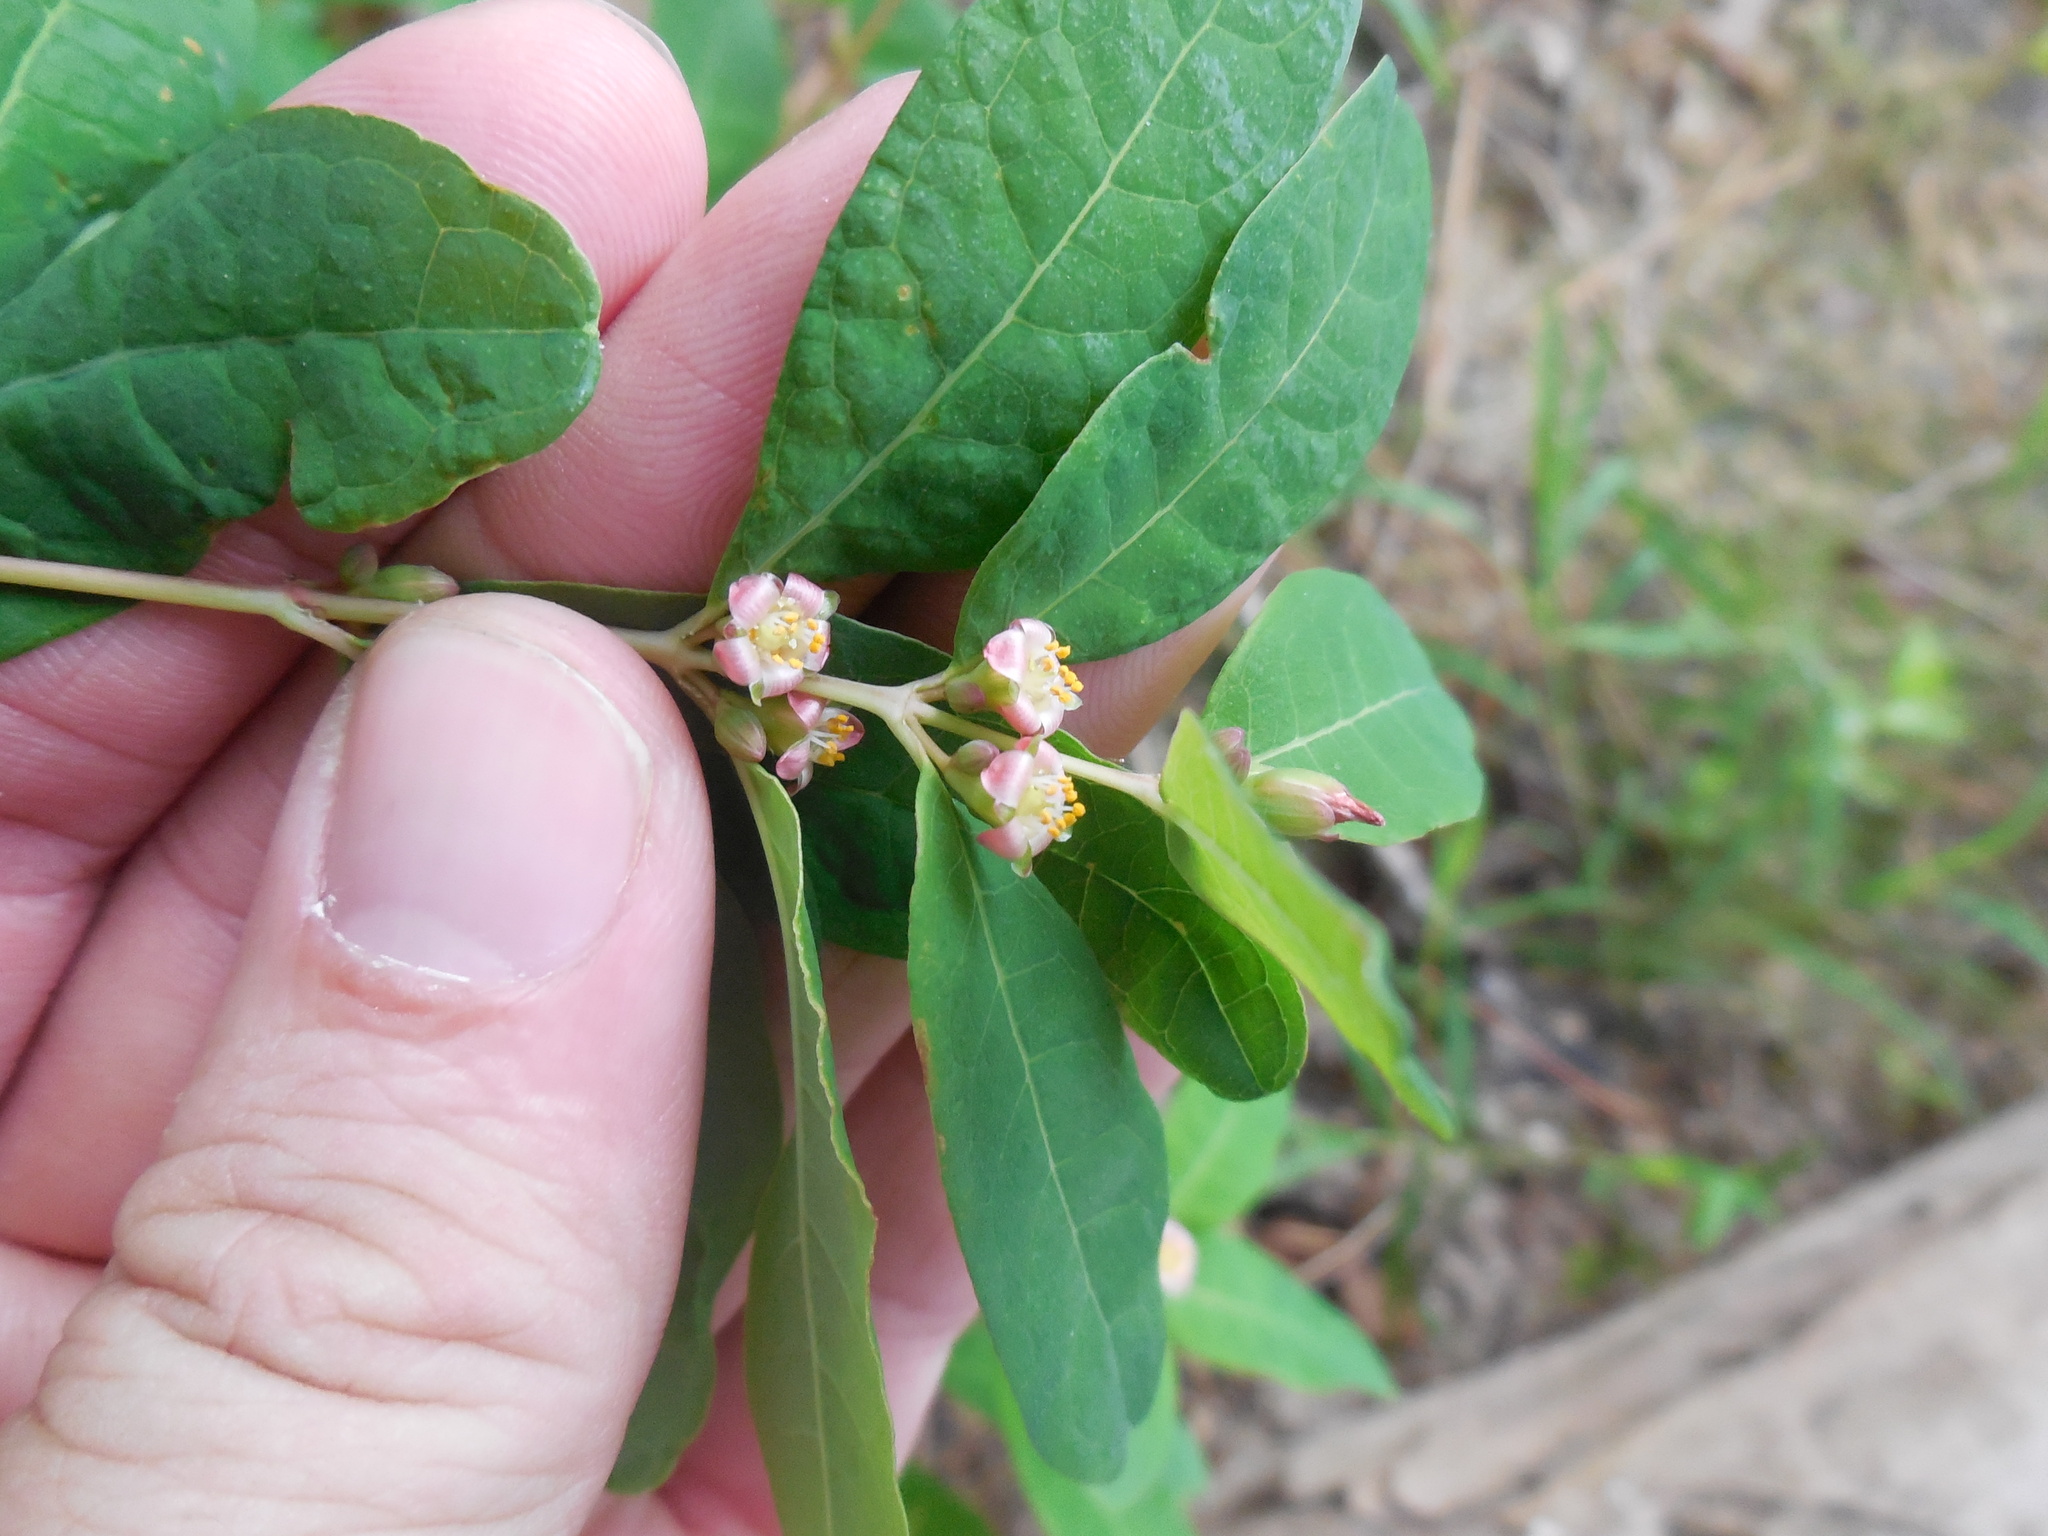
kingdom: Plantae
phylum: Tracheophyta
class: Magnoliopsida
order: Malpighiales
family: Hypericaceae
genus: Triadenum
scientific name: Triadenum walteri
